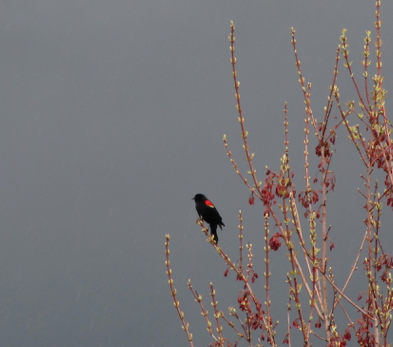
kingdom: Animalia
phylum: Chordata
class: Aves
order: Passeriformes
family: Icteridae
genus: Agelaius
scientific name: Agelaius phoeniceus
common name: Red-winged blackbird
